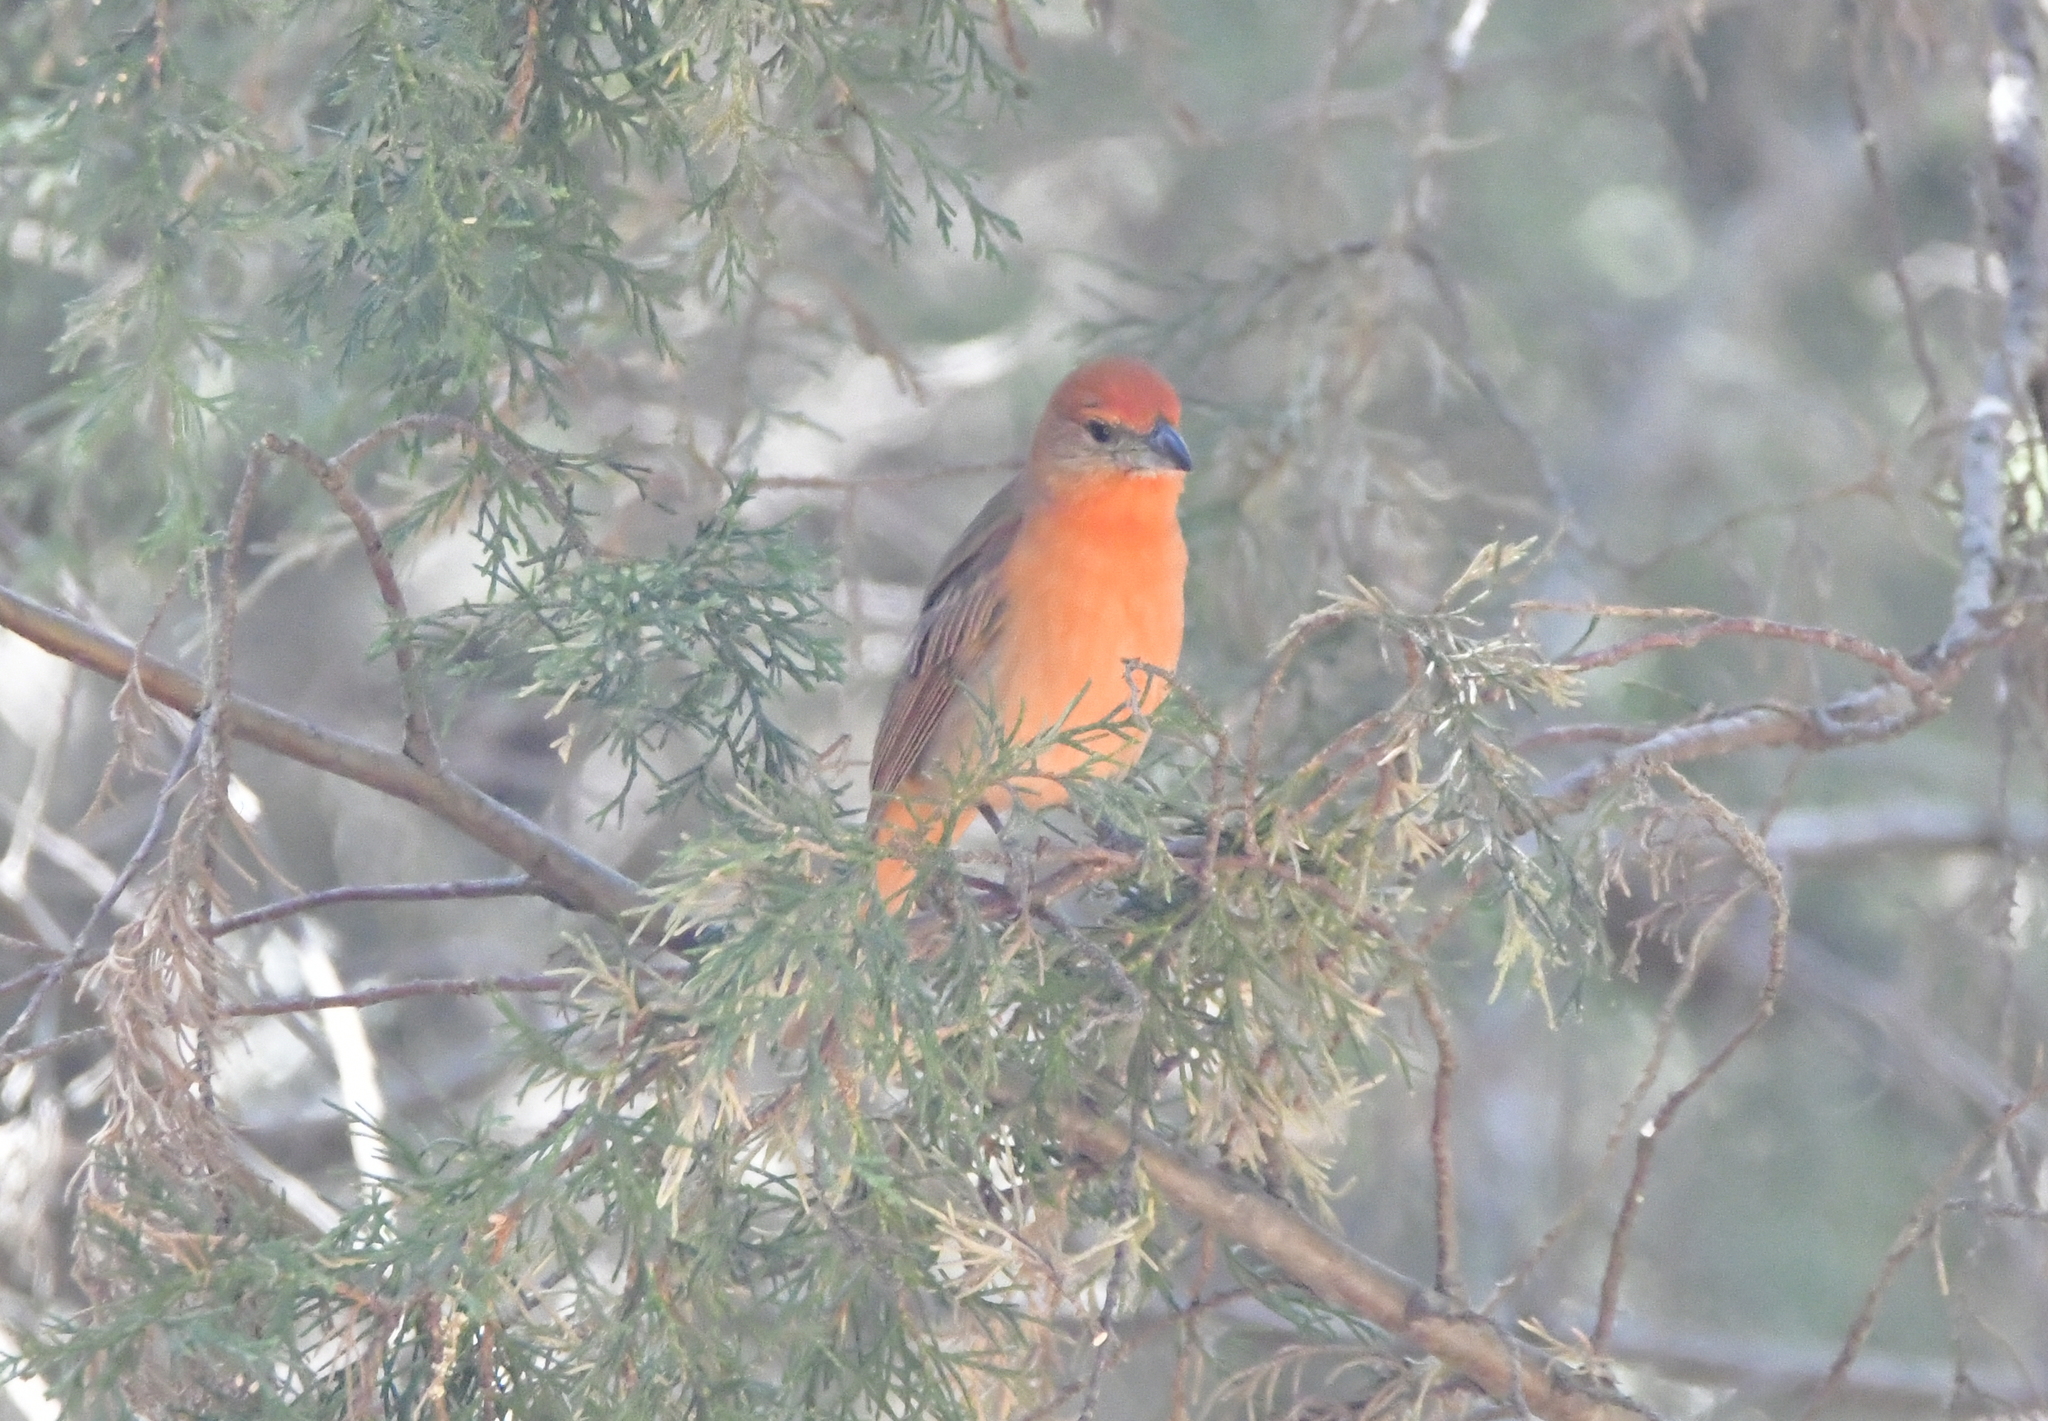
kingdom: Animalia
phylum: Chordata
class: Aves
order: Passeriformes
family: Cardinalidae
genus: Piranga
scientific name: Piranga flava
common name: Red tanager
